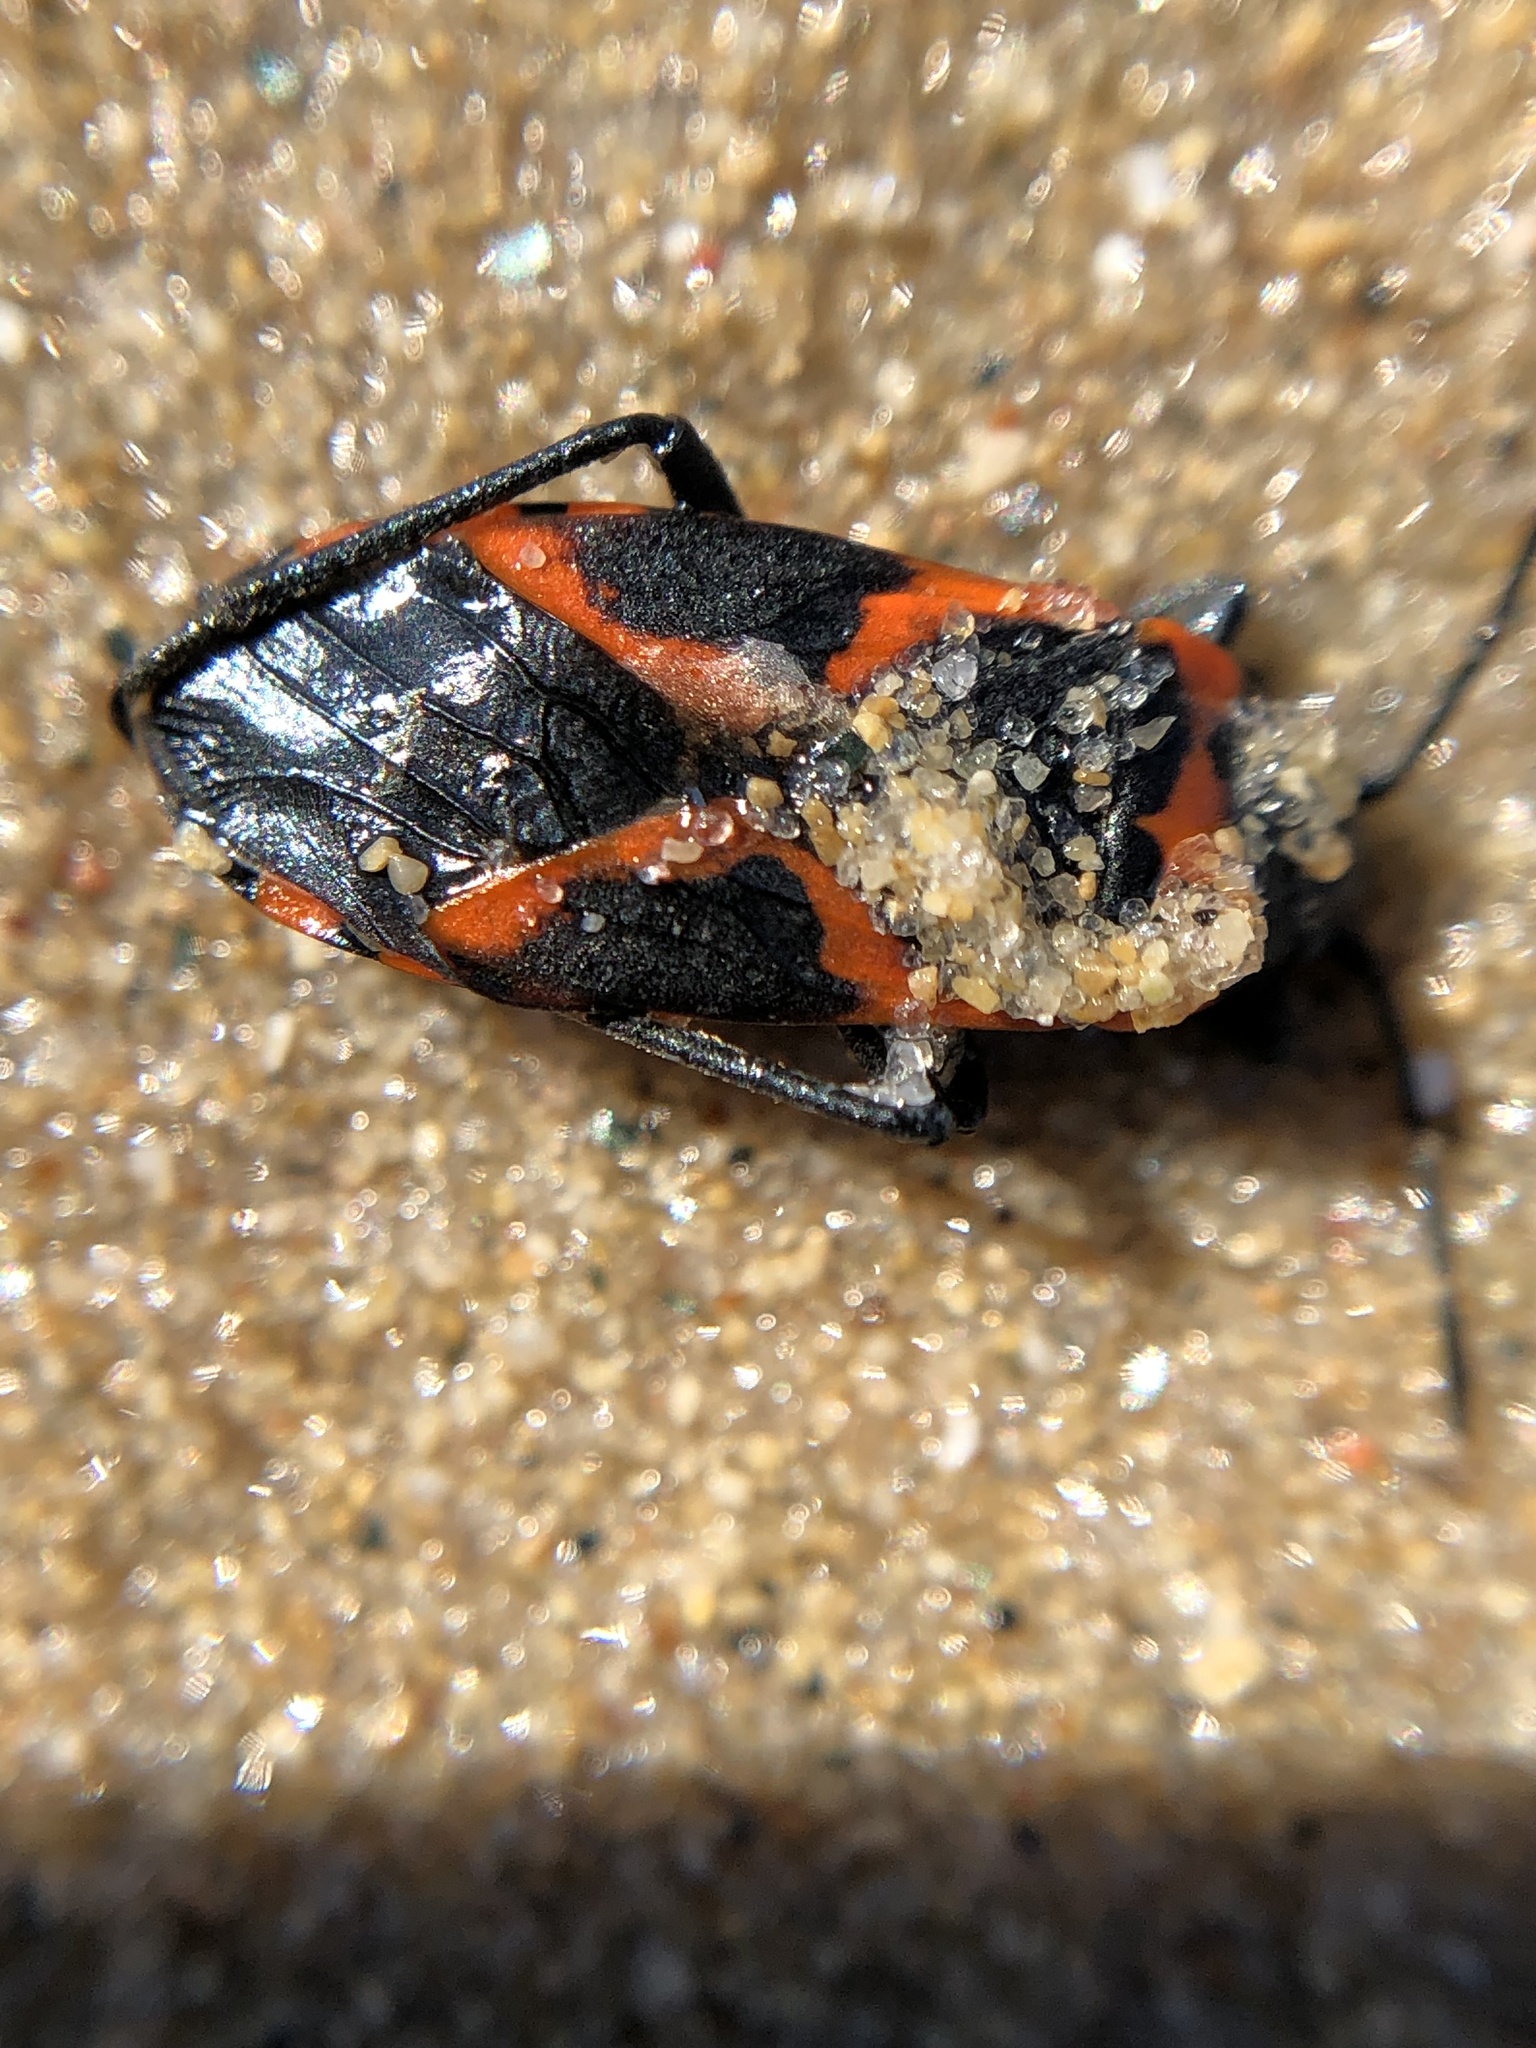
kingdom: Animalia
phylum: Arthropoda
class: Insecta
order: Hemiptera
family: Lygaeidae
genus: Lygaeus
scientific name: Lygaeus kalmii
